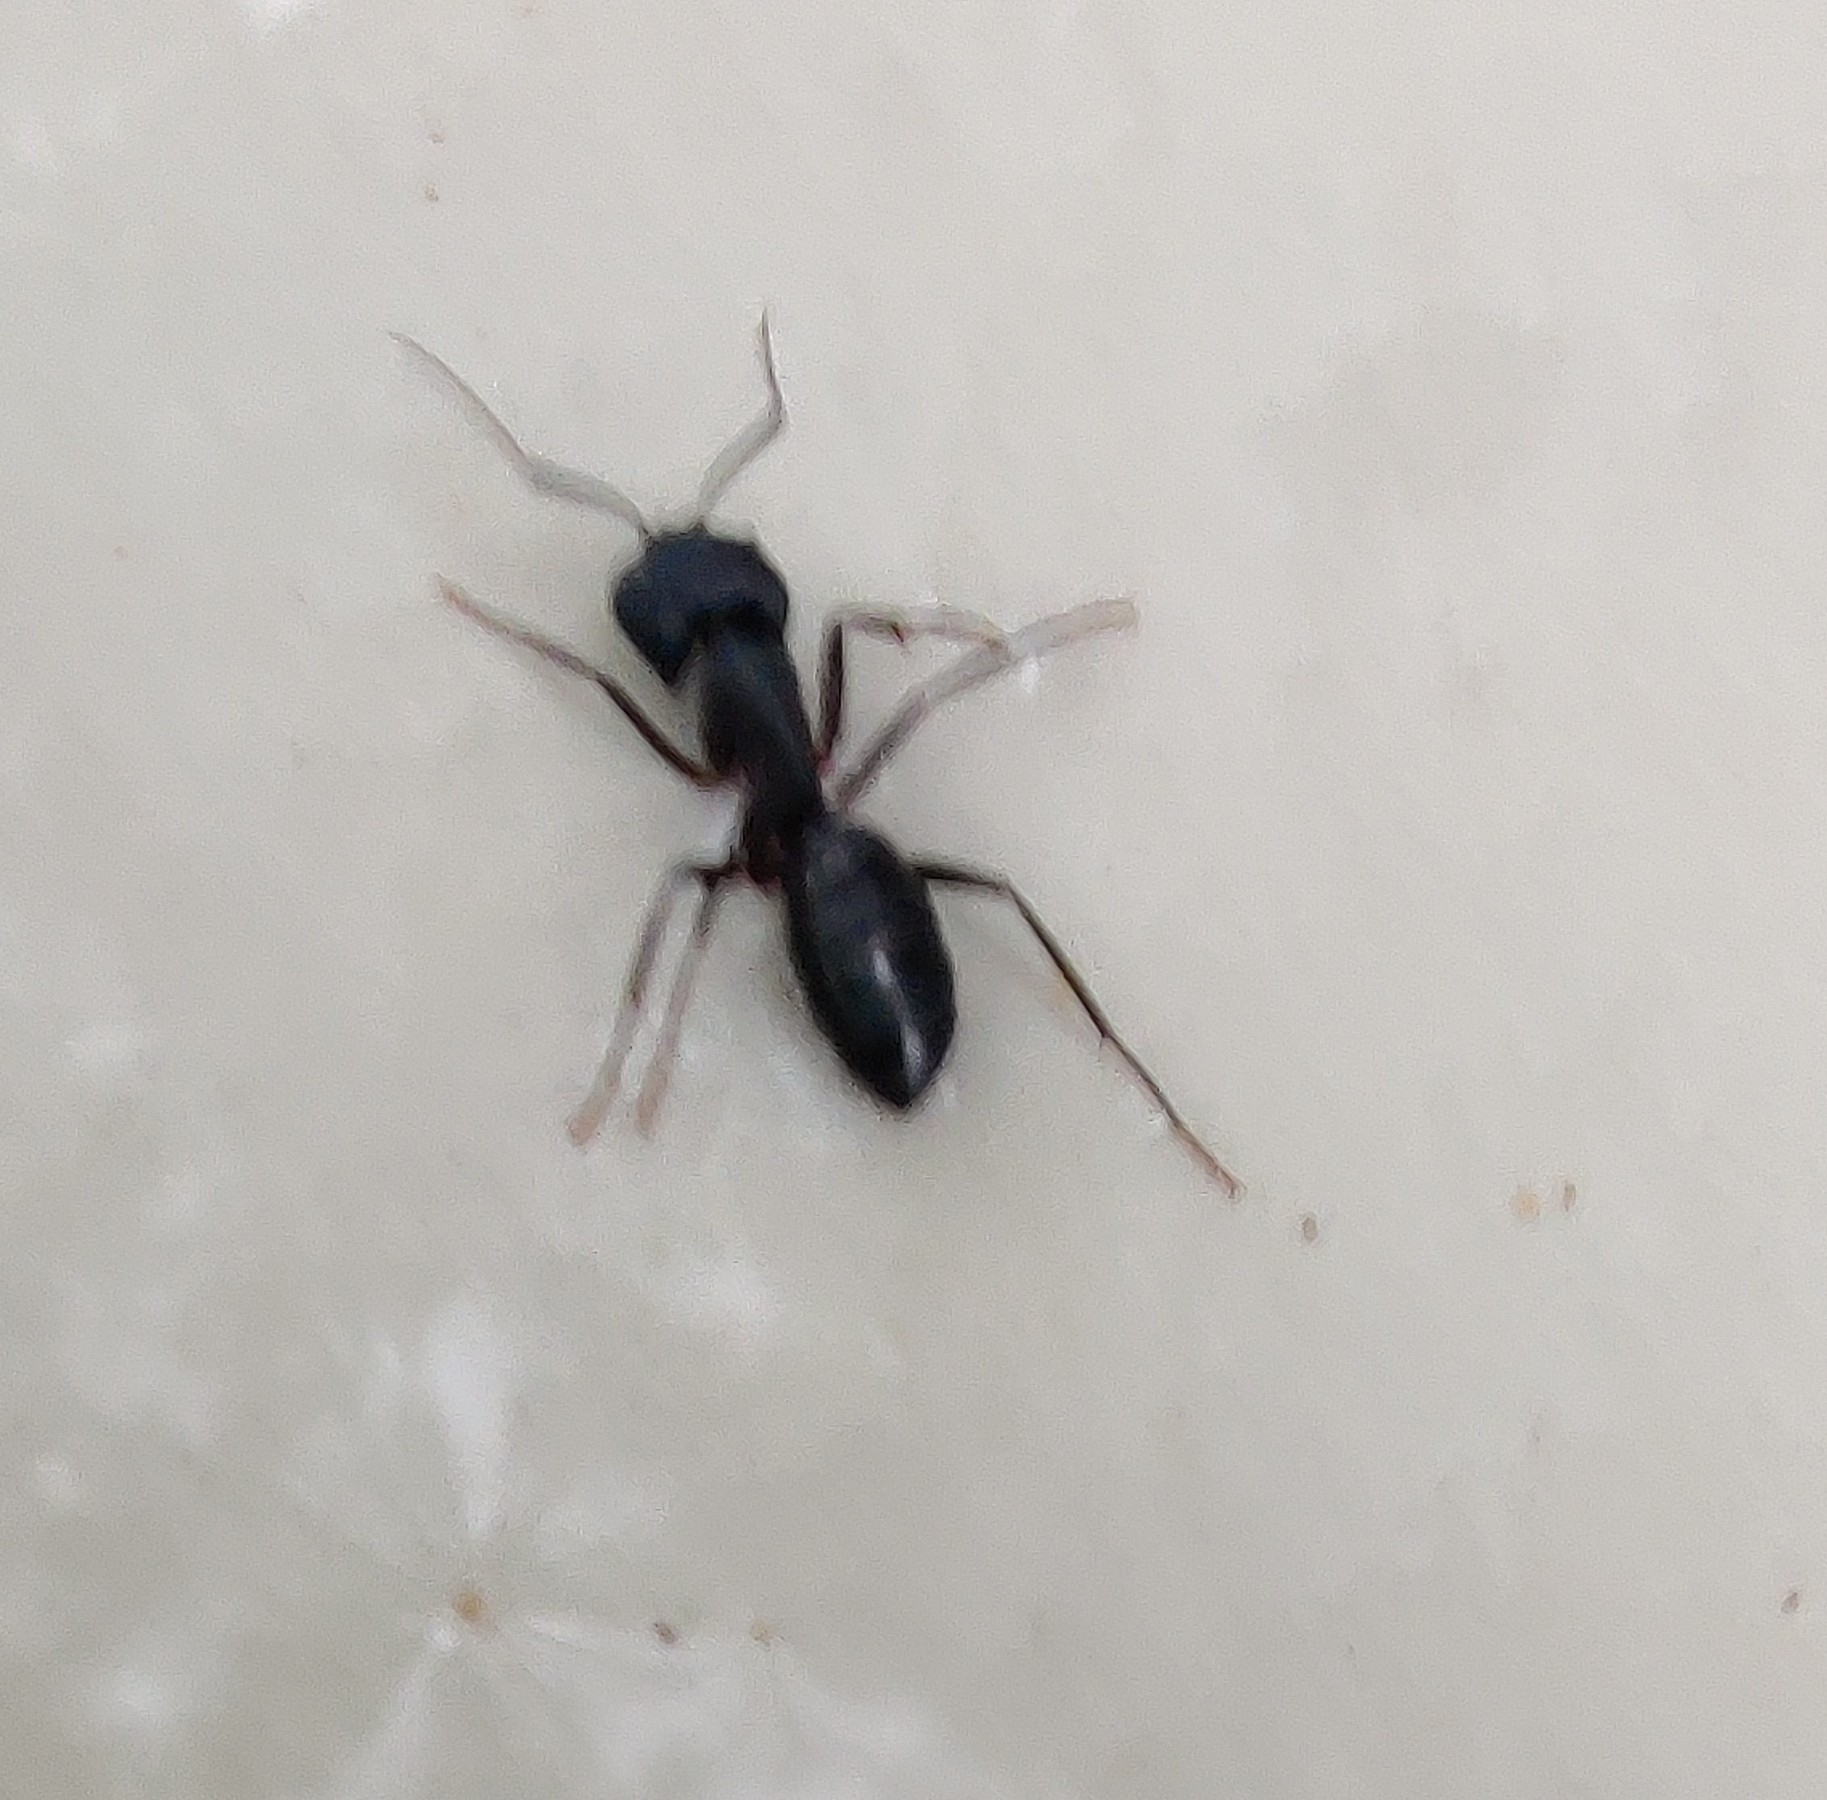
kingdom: Animalia
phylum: Arthropoda
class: Insecta
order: Hymenoptera
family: Formicidae
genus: Camponotus
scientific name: Camponotus compressus
